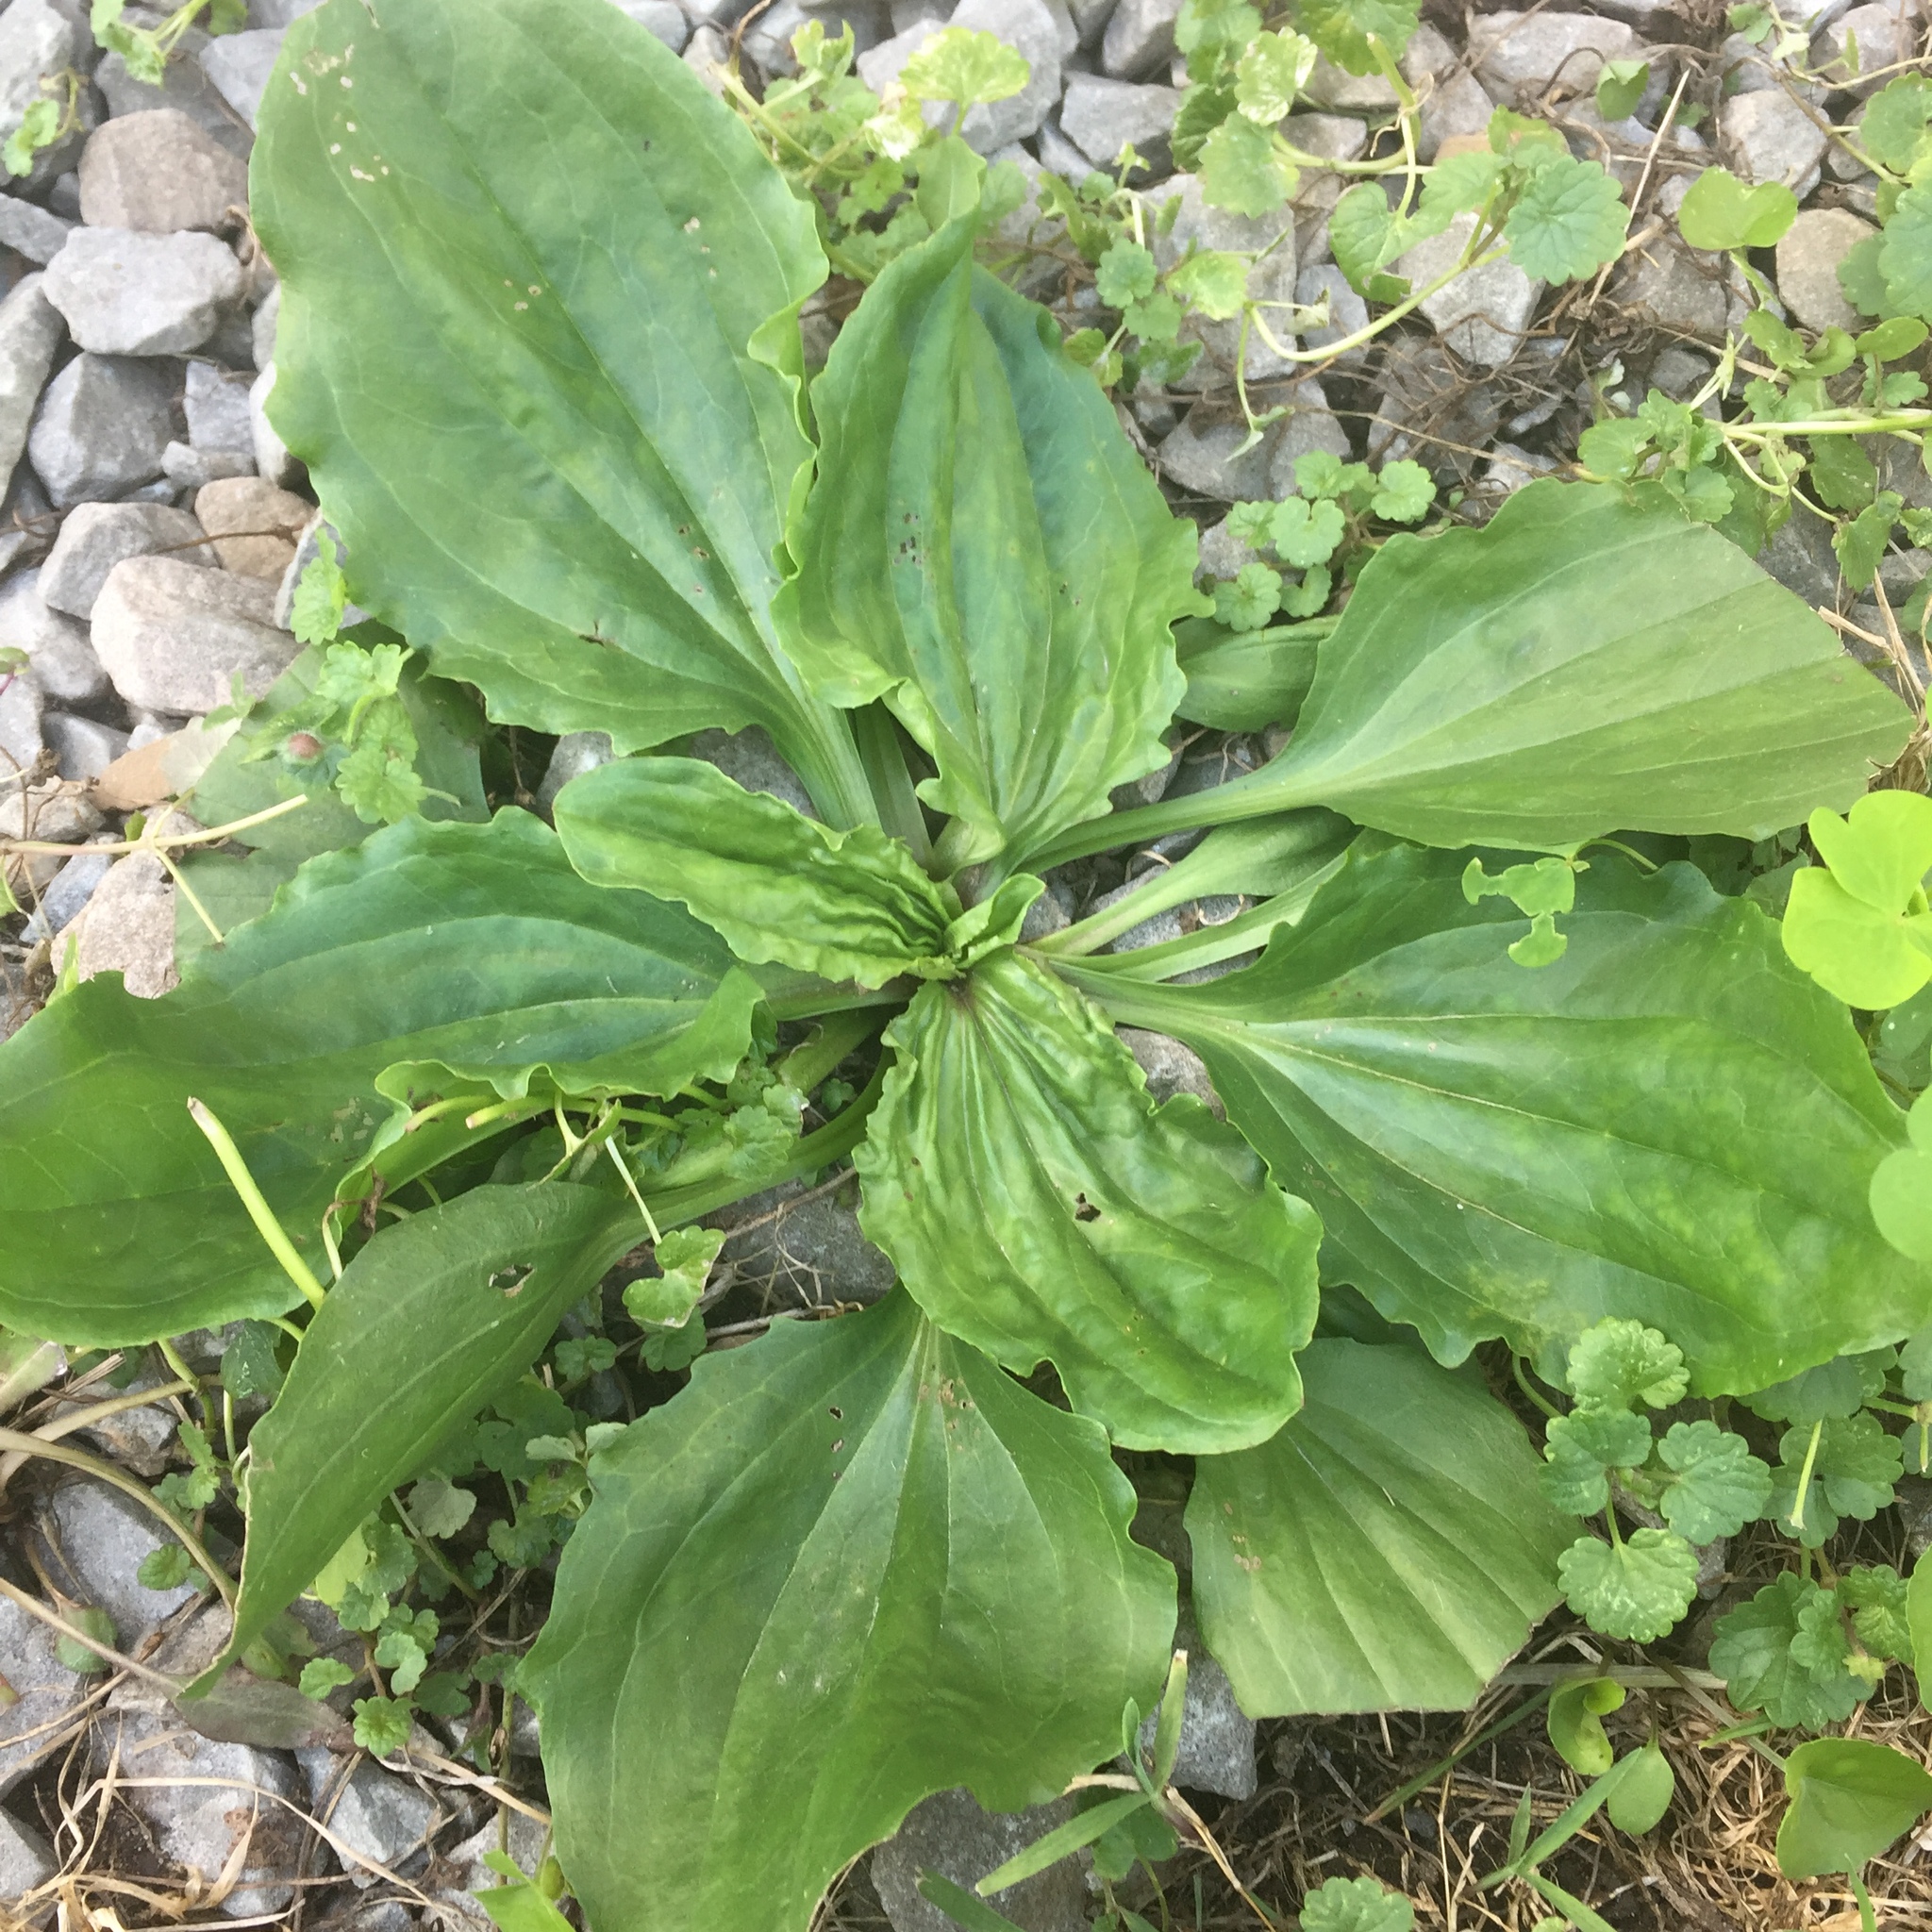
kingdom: Plantae
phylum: Tracheophyta
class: Magnoliopsida
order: Lamiales
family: Plantaginaceae
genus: Plantago
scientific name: Plantago rugelii
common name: American plantain
